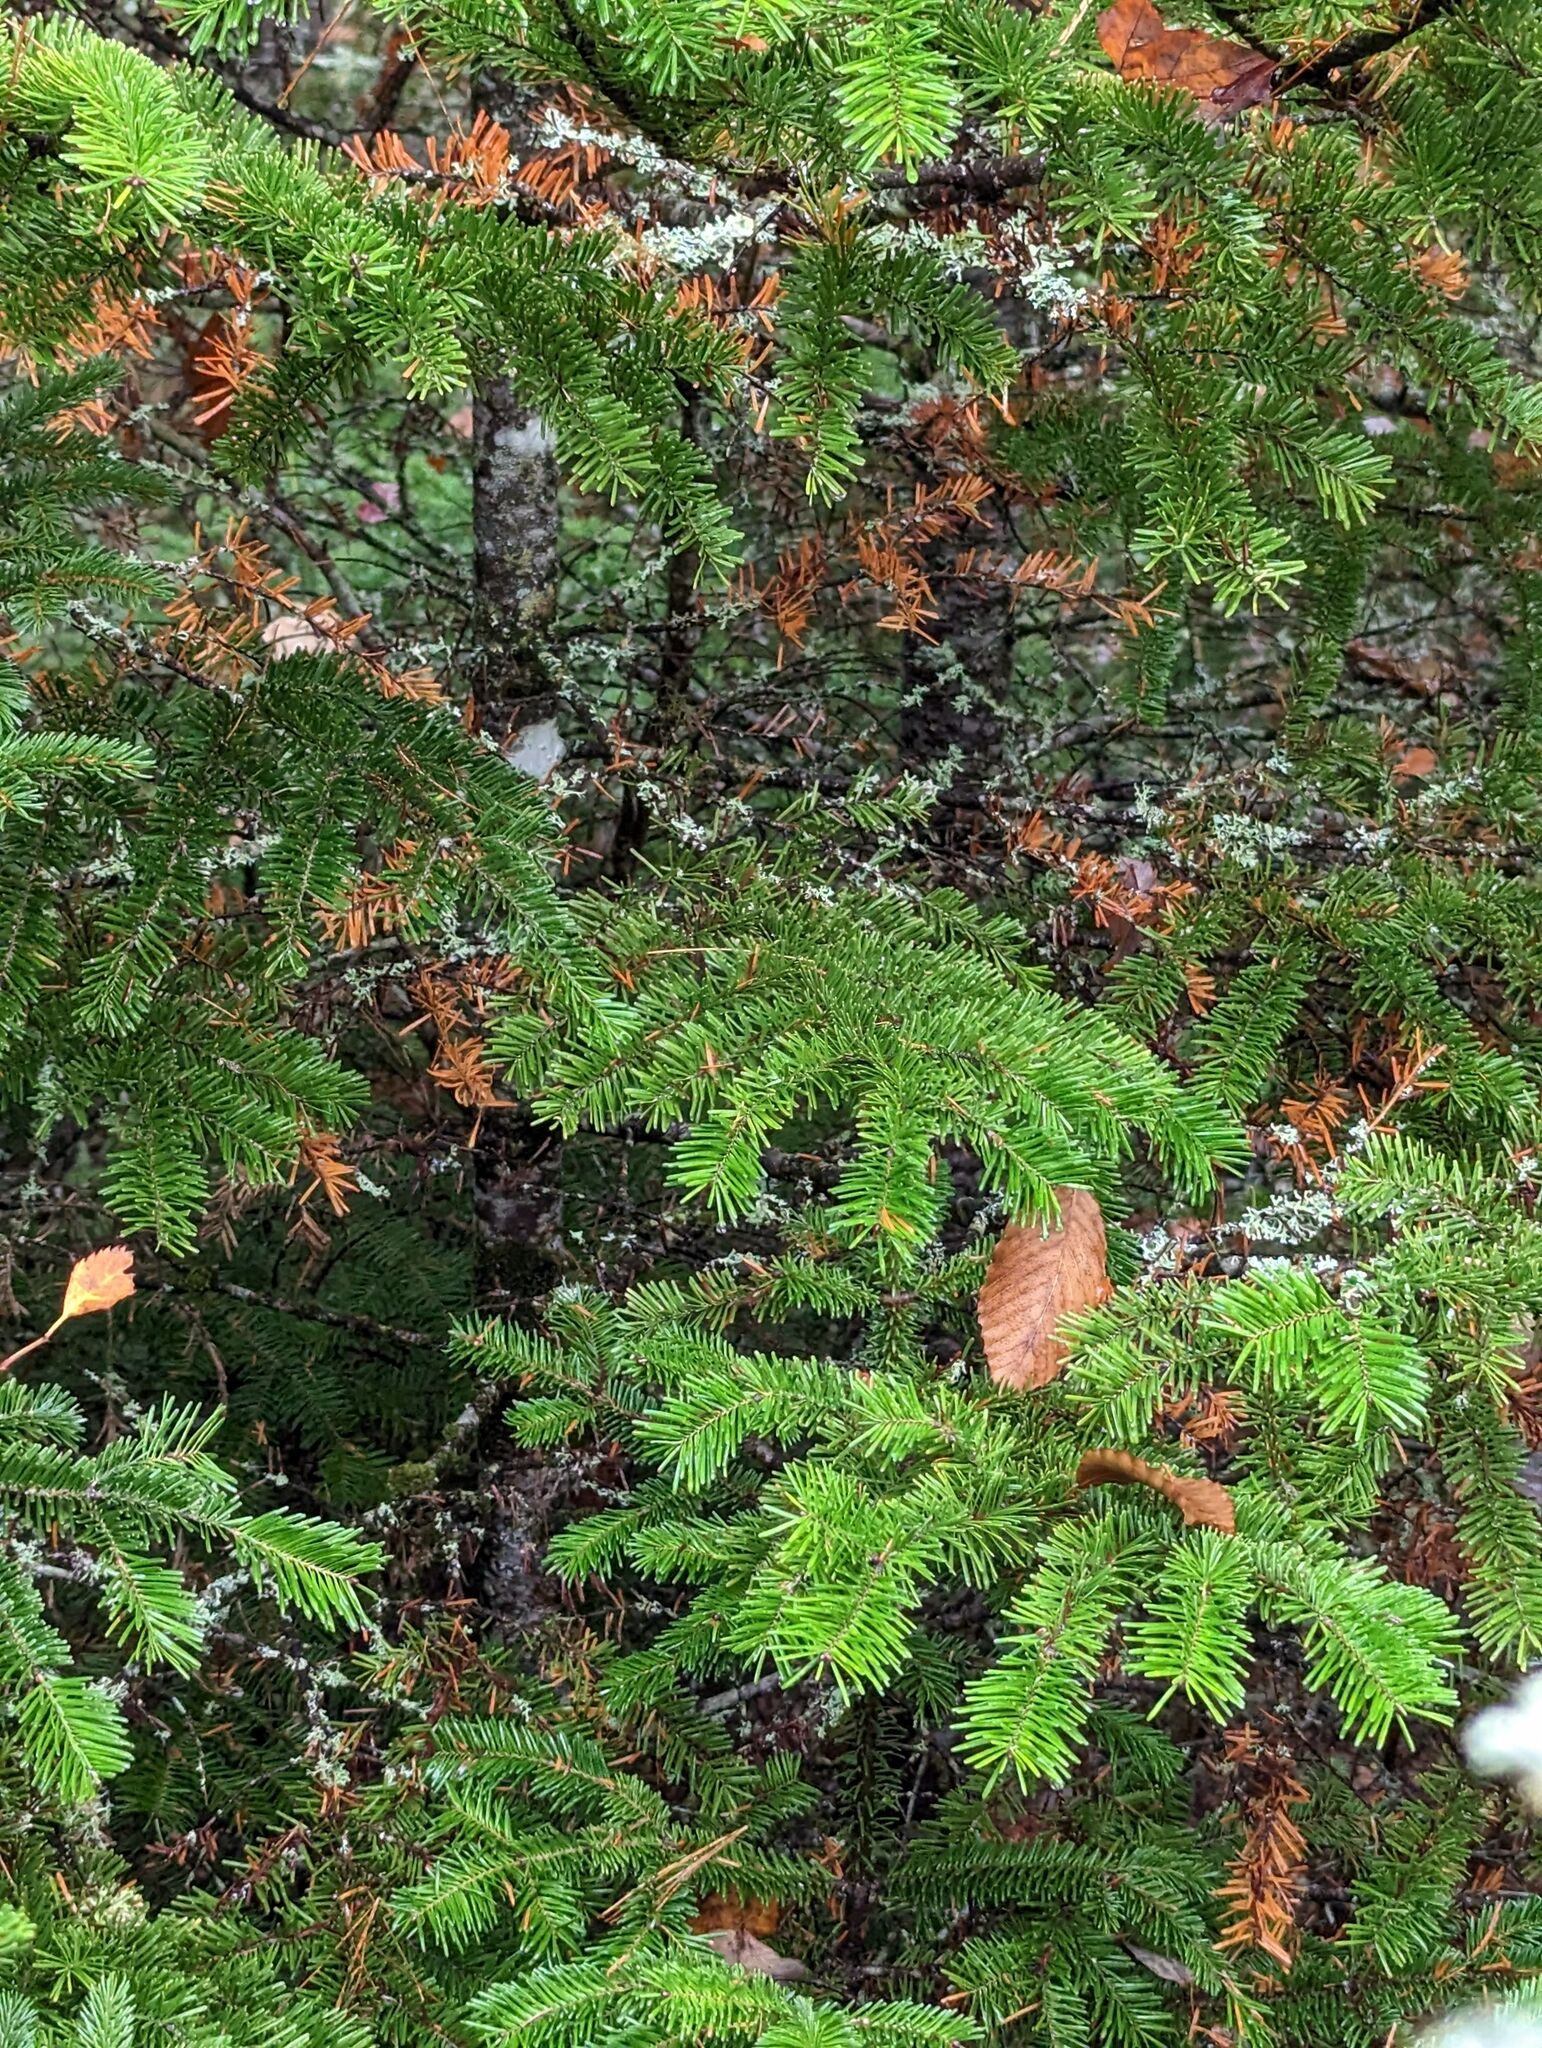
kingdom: Plantae
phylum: Tracheophyta
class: Pinopsida
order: Pinales
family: Pinaceae
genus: Abies
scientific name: Abies balsamea
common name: Balsam fir
